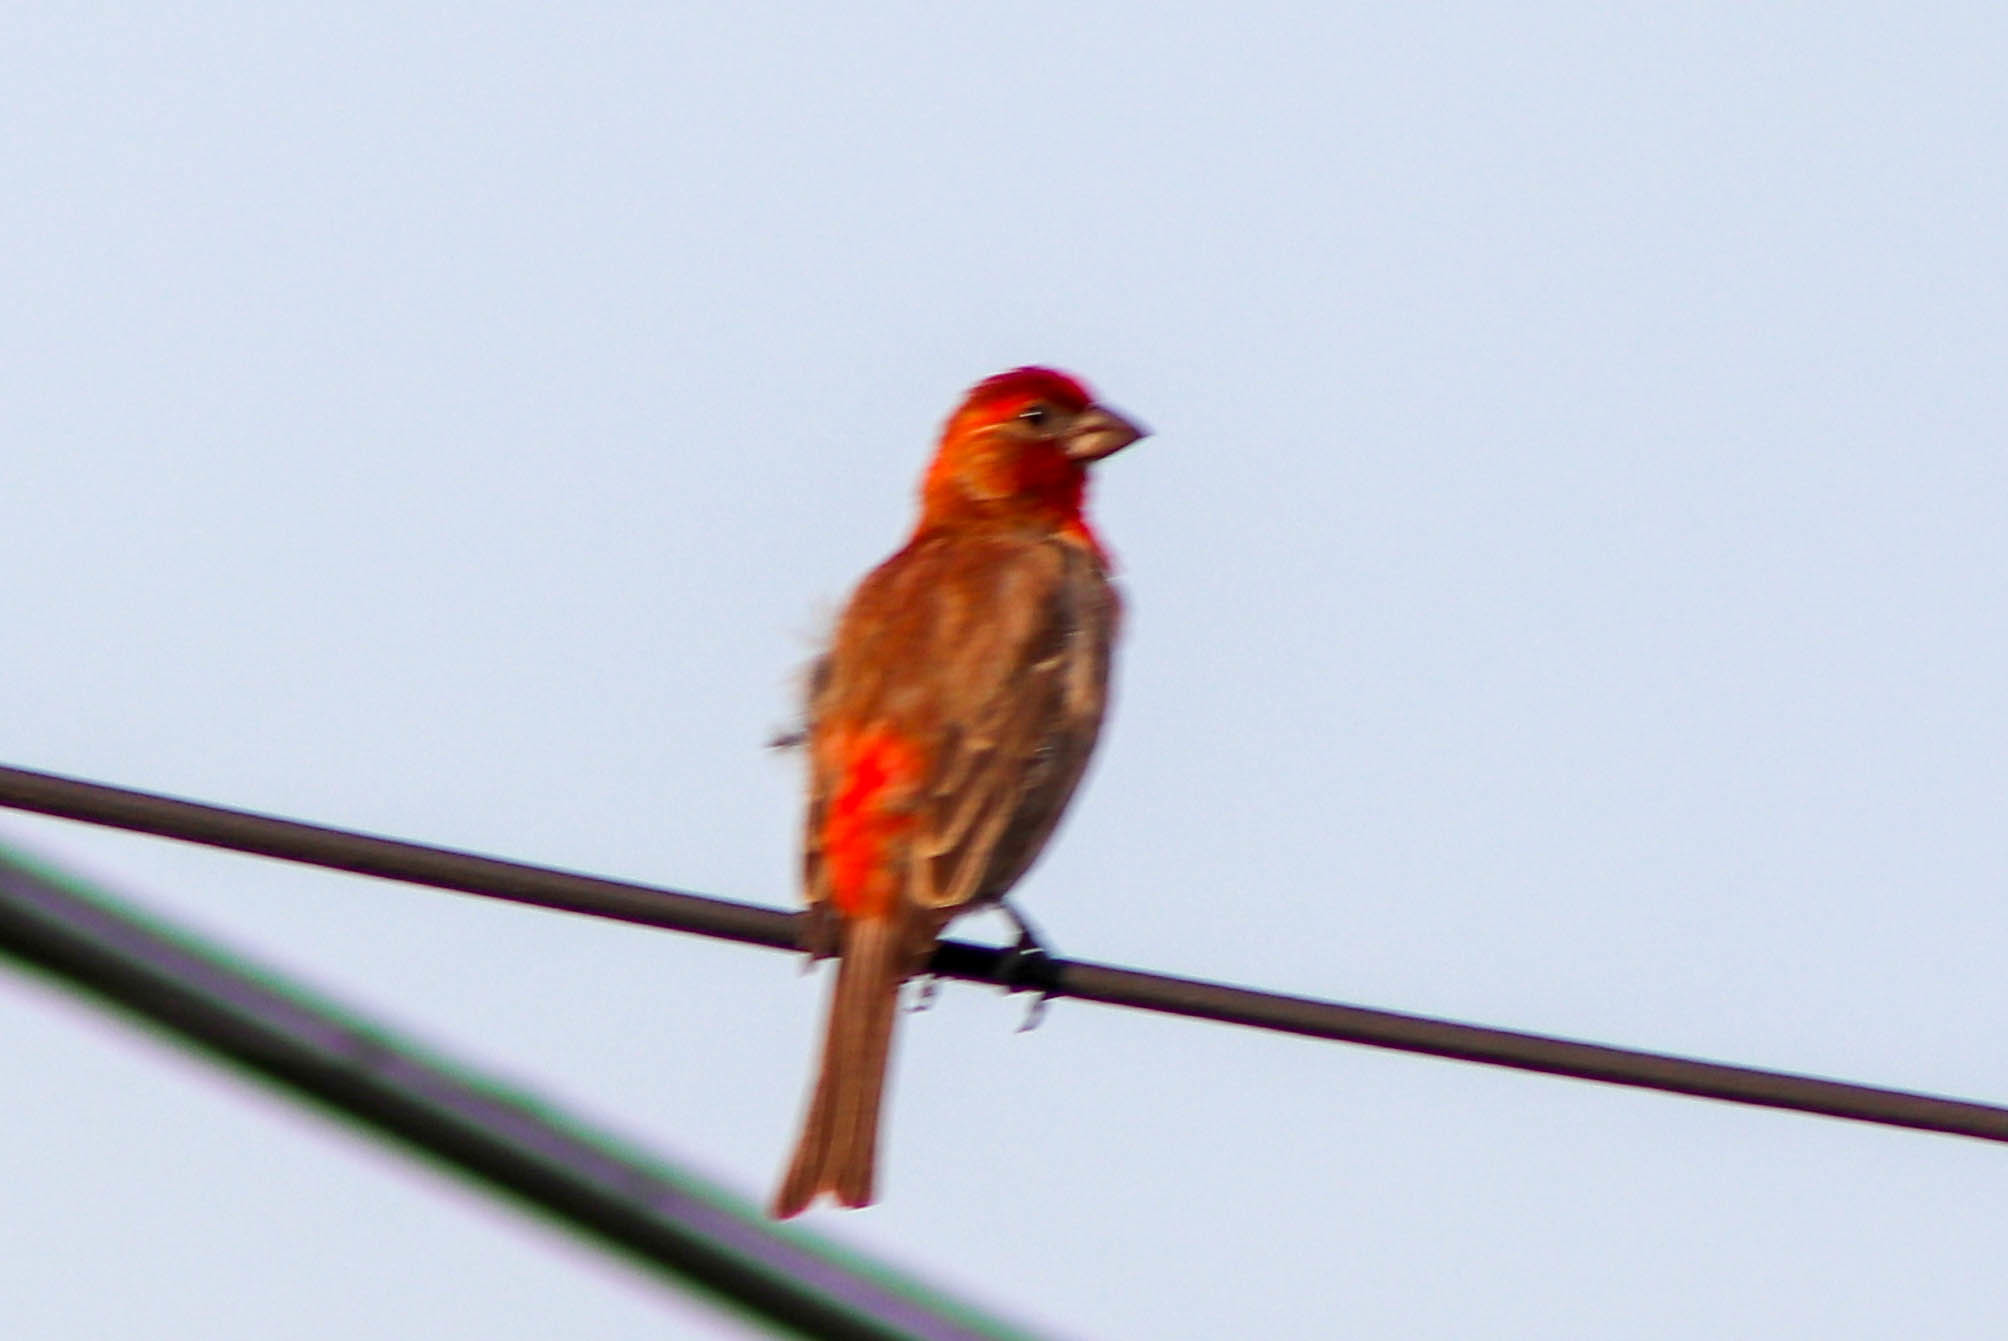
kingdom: Animalia
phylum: Chordata
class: Aves
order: Passeriformes
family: Fringillidae
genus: Haemorhous
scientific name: Haemorhous mexicanus
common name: House finch
